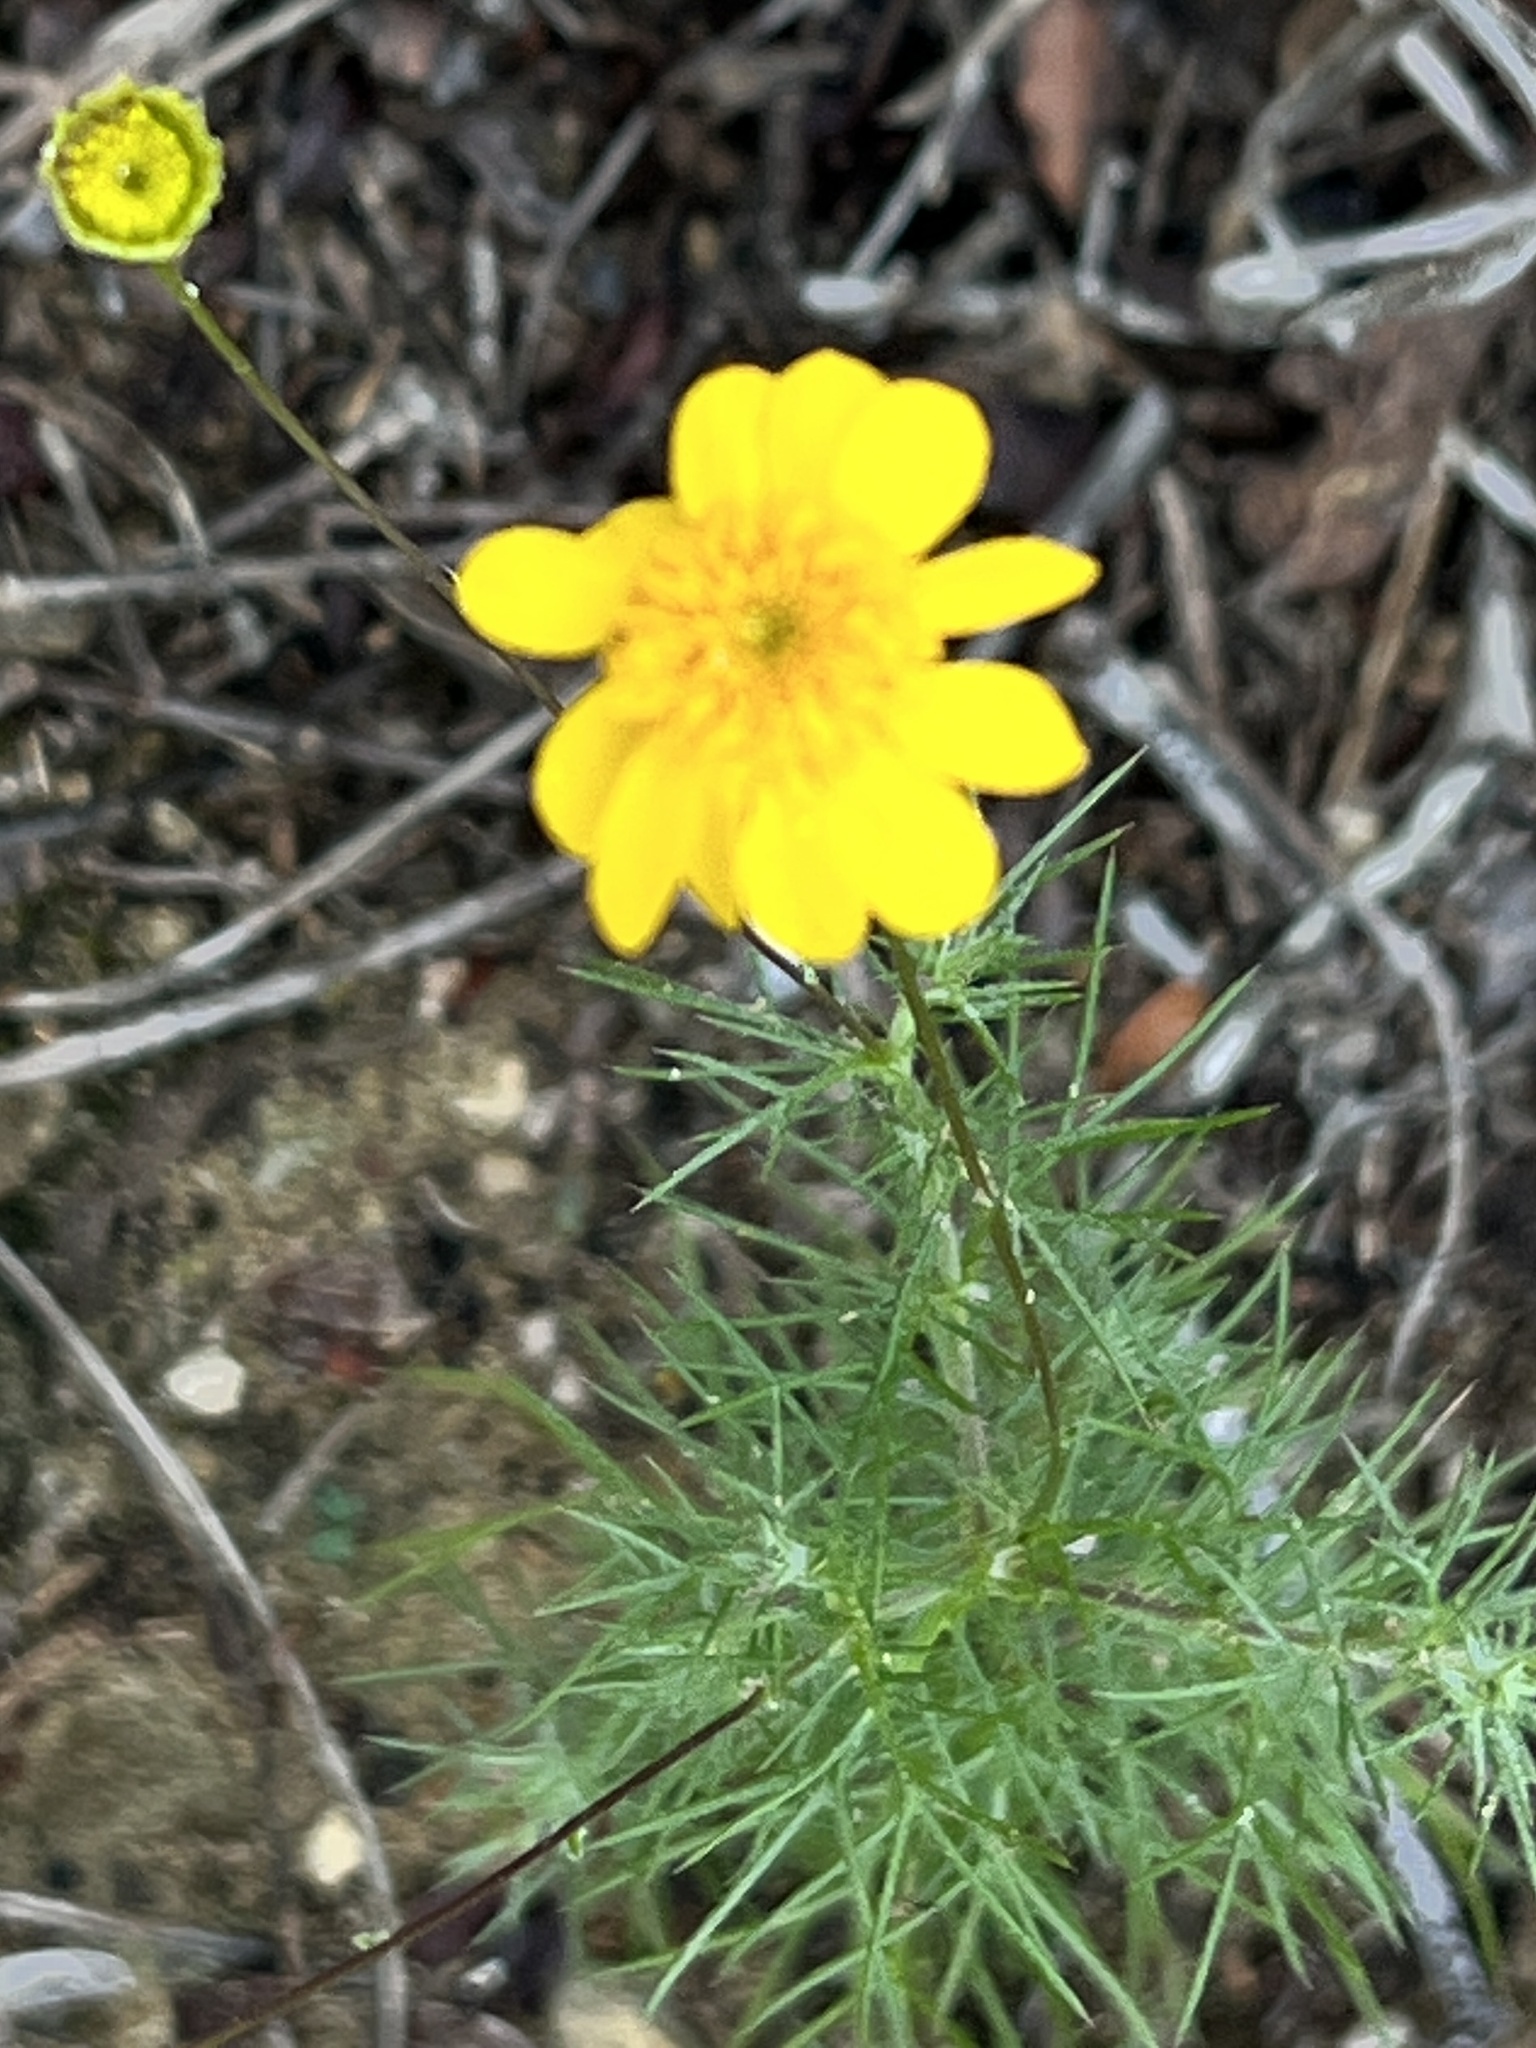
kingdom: Plantae
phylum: Tracheophyta
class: Magnoliopsida
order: Asterales
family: Asteraceae
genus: Thymophylla
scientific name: Thymophylla pentachaeta
